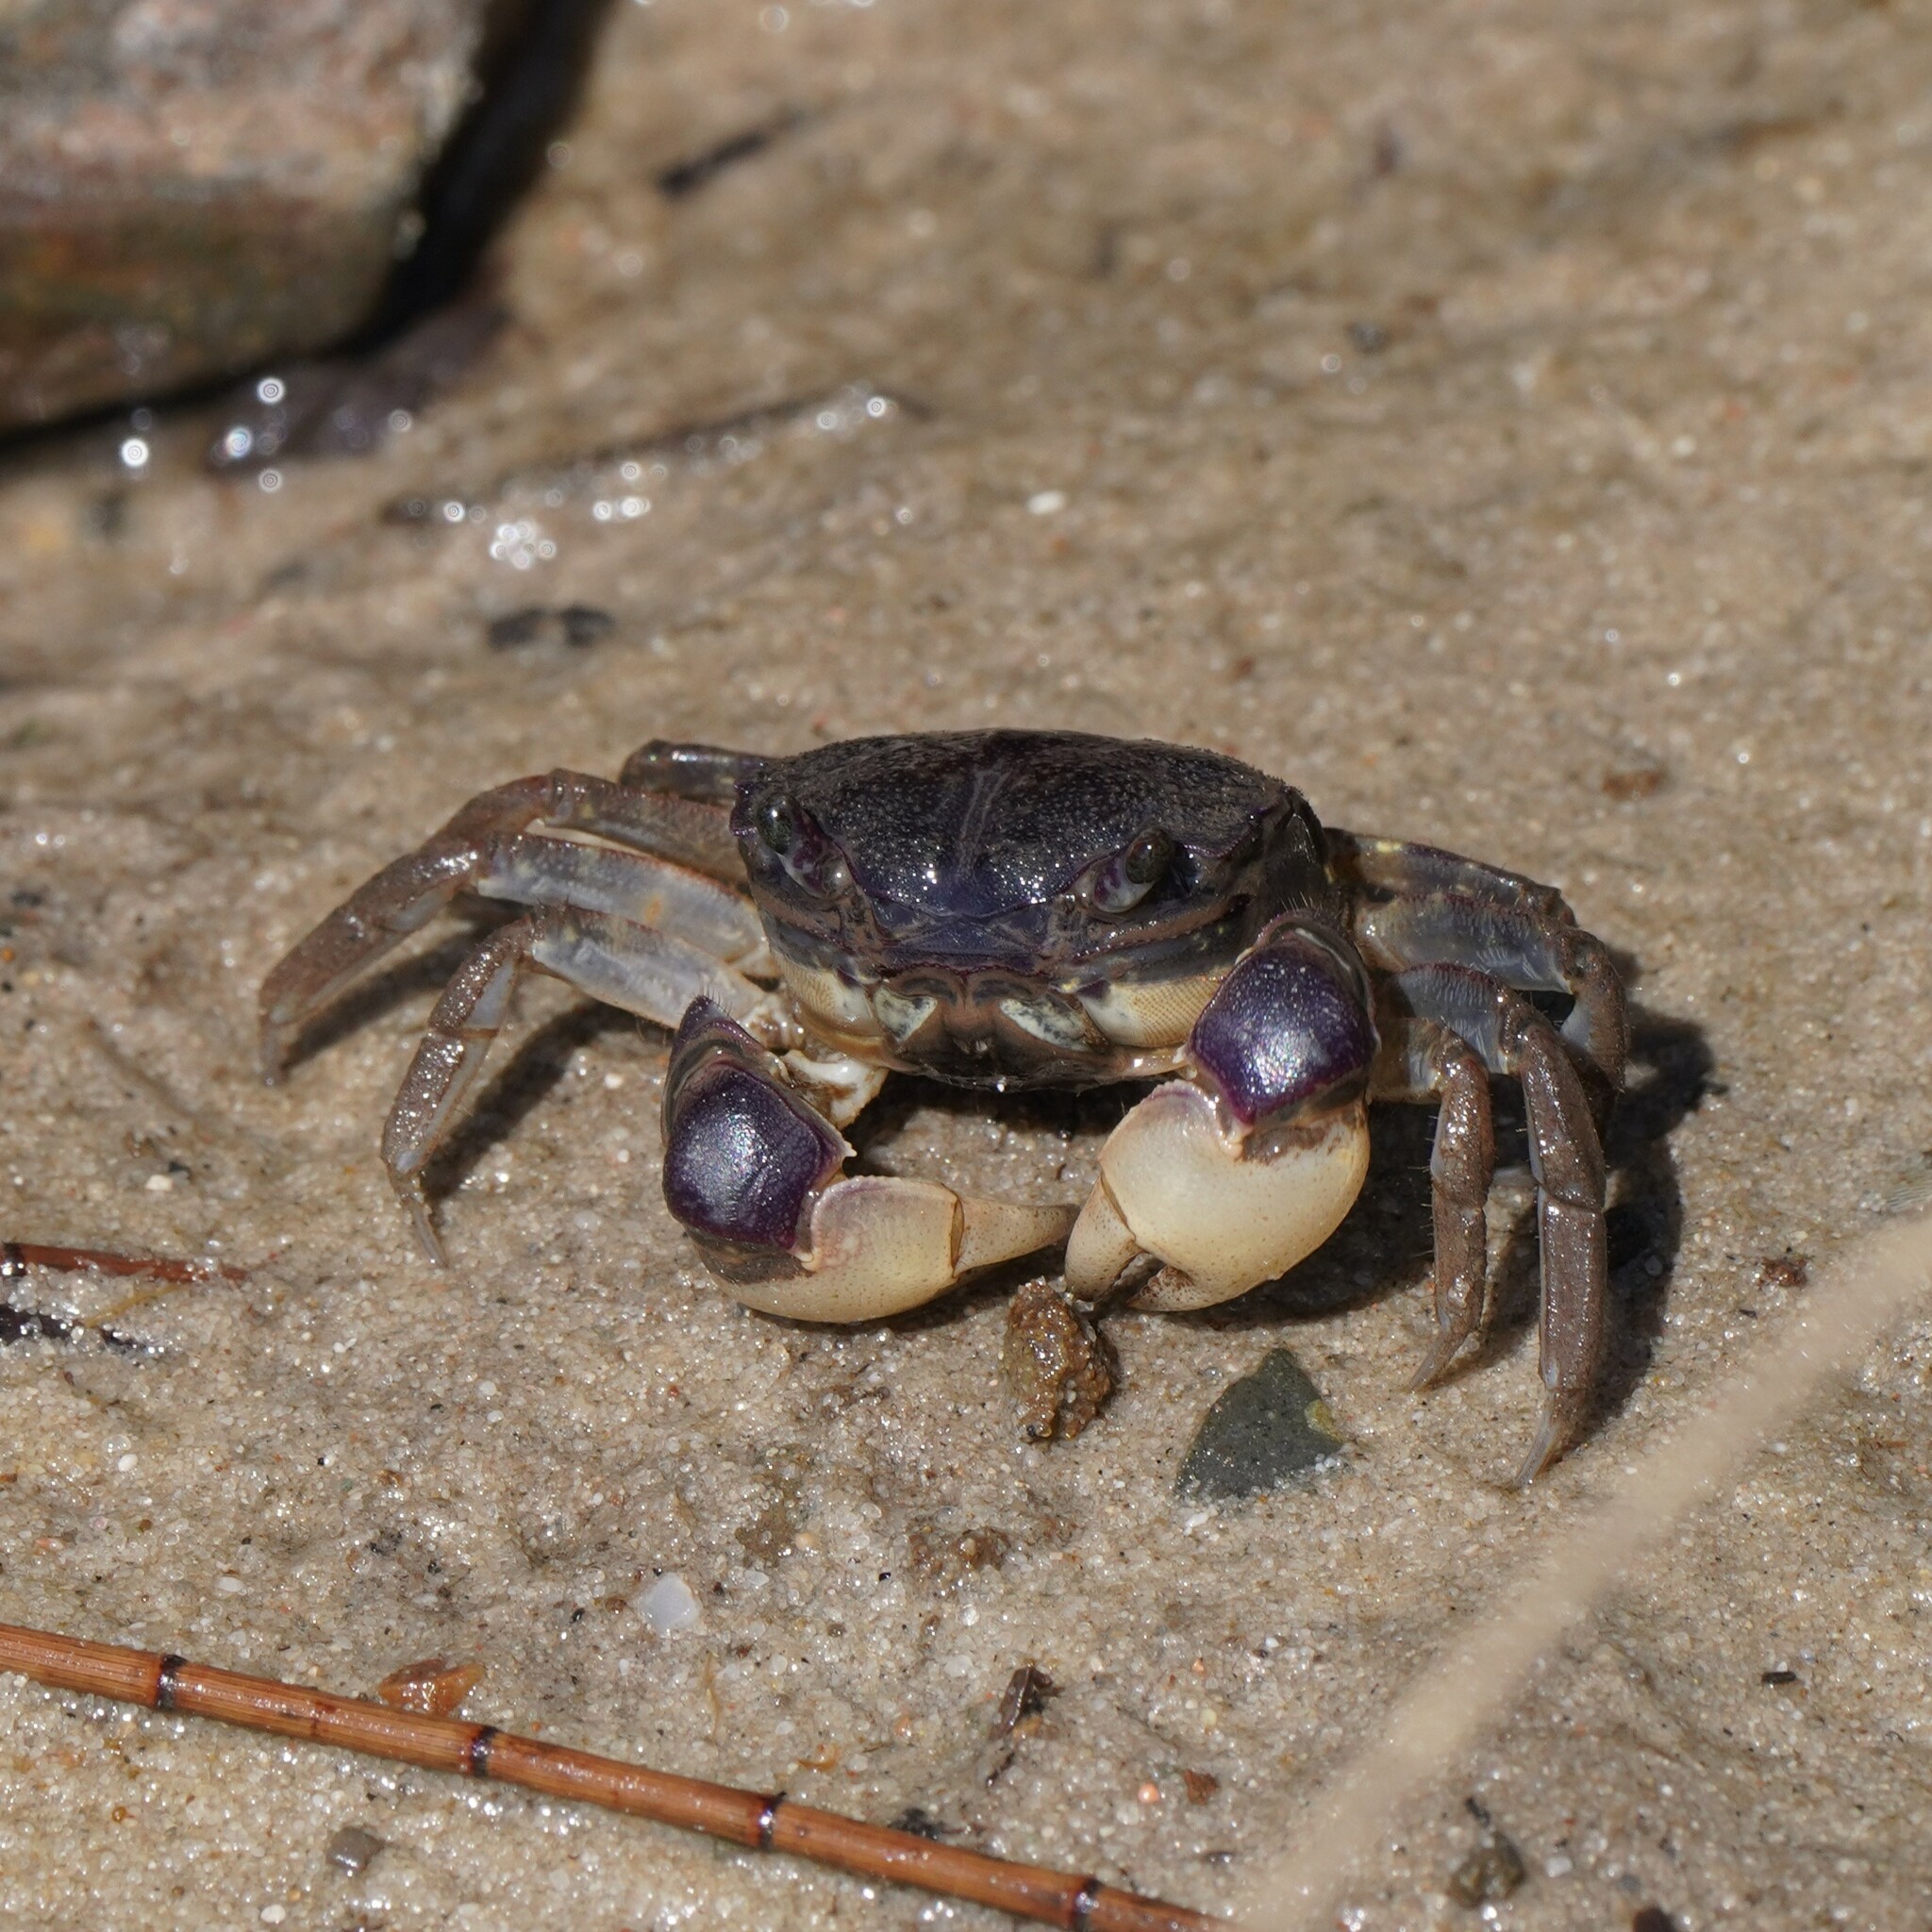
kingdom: Animalia
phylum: Arthropoda
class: Malacostraca
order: Decapoda
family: Varunidae
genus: Pseudohelice
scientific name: Pseudohelice subquadrata
